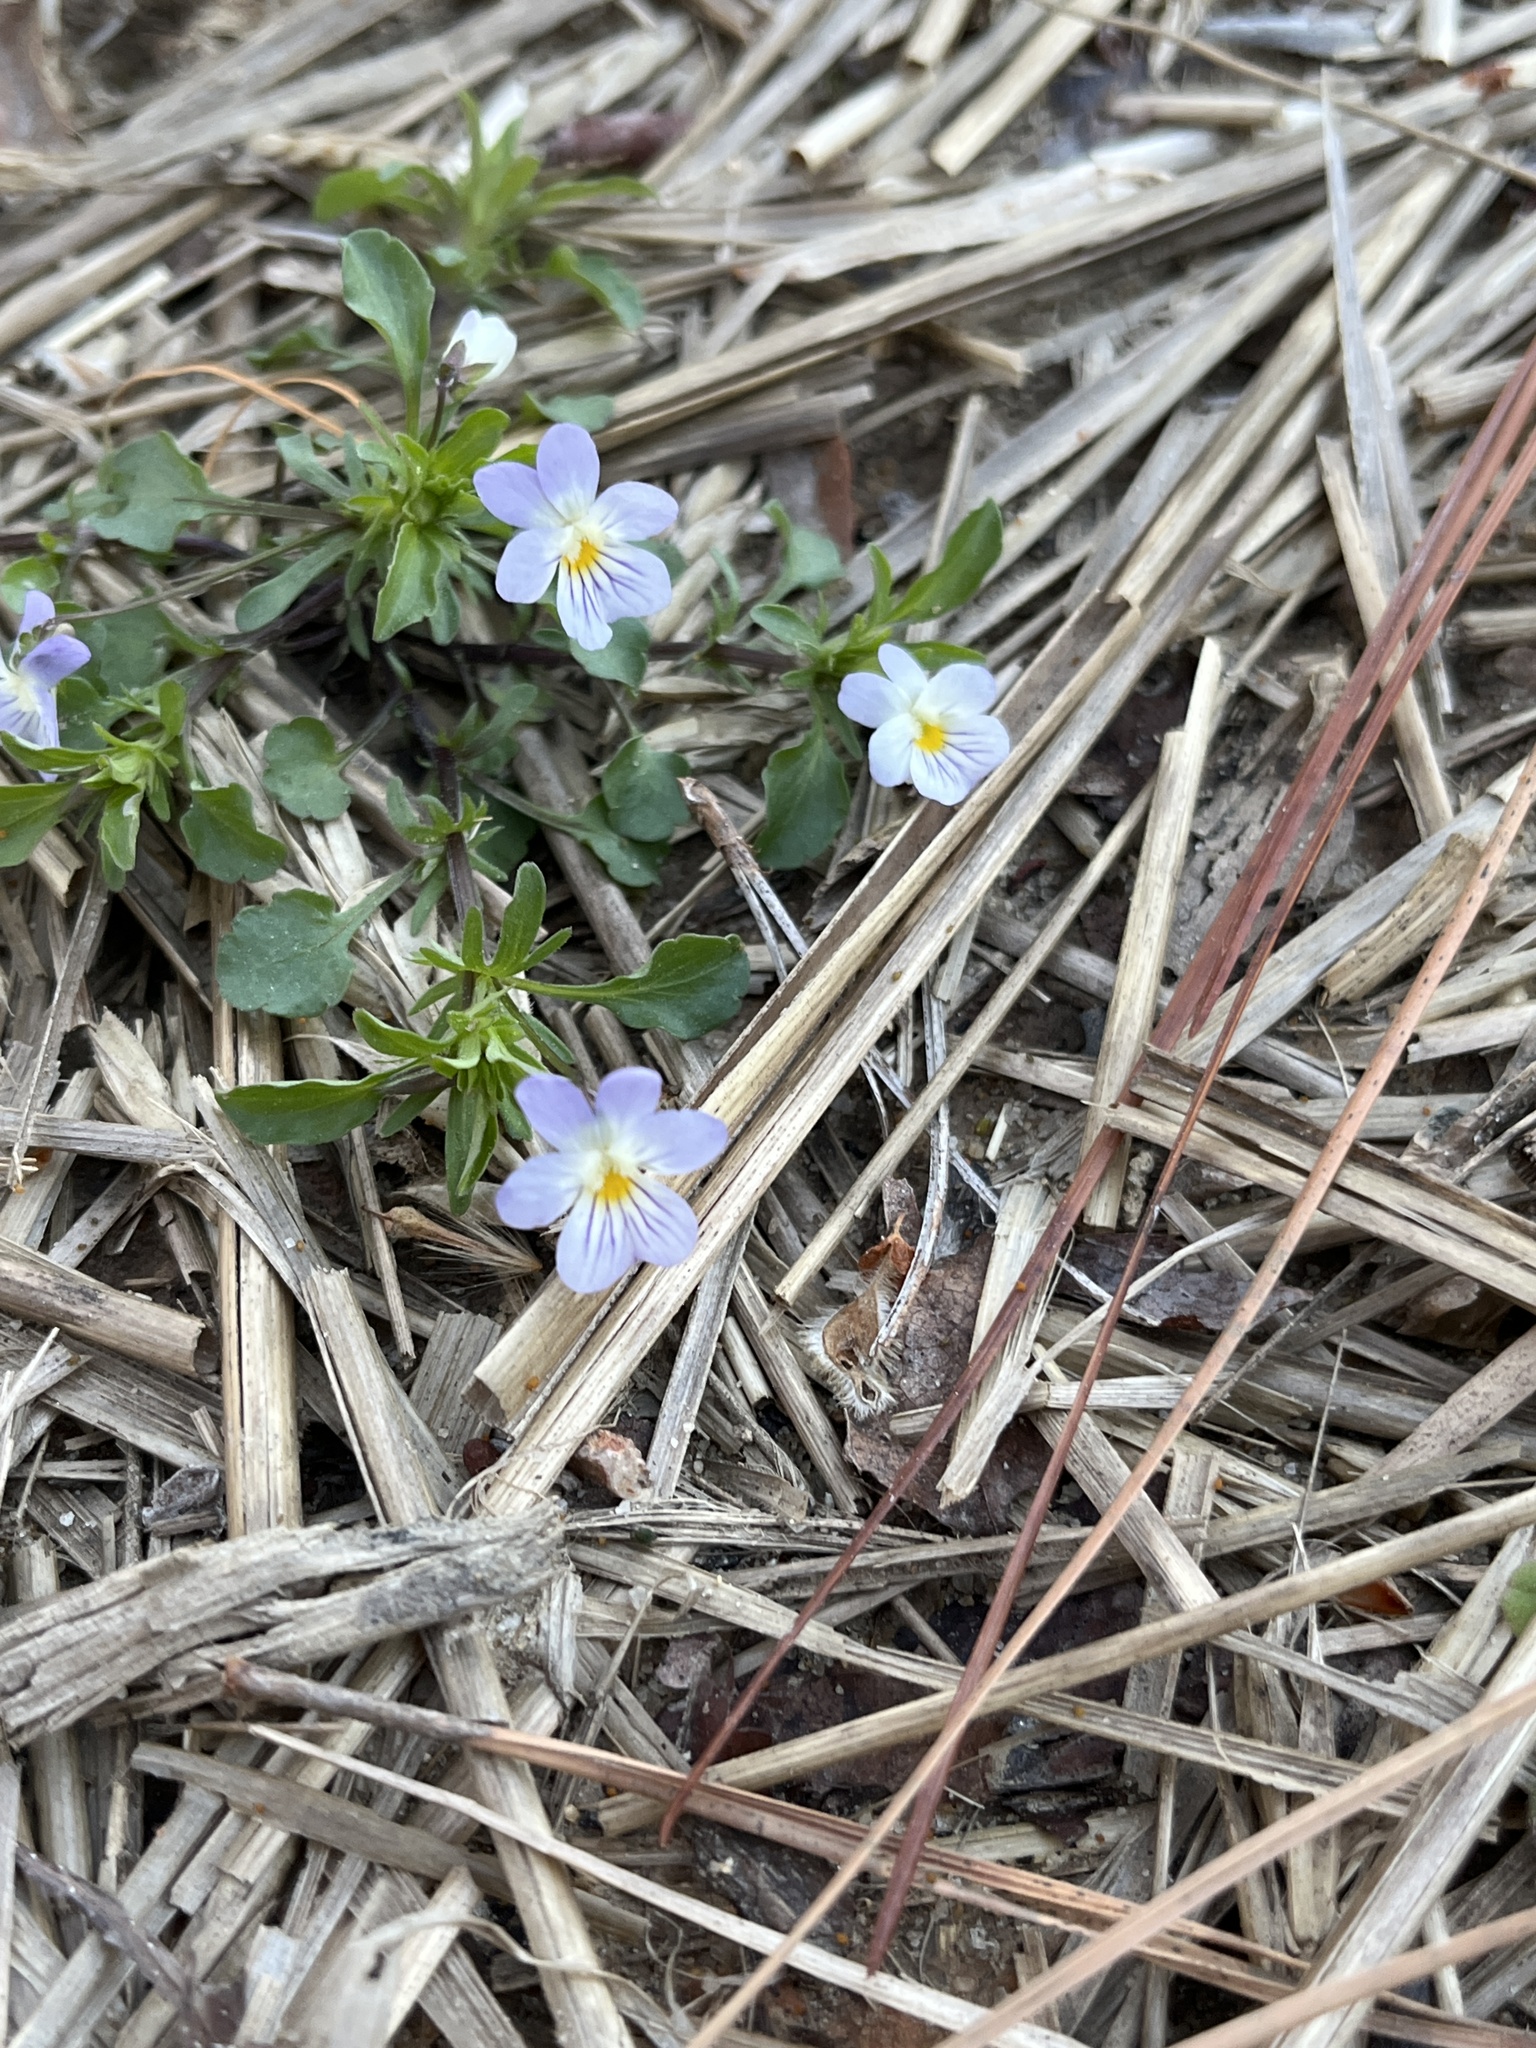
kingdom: Plantae
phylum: Tracheophyta
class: Magnoliopsida
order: Malpighiales
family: Violaceae
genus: Viola
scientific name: Viola rafinesquei
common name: American field pansy
